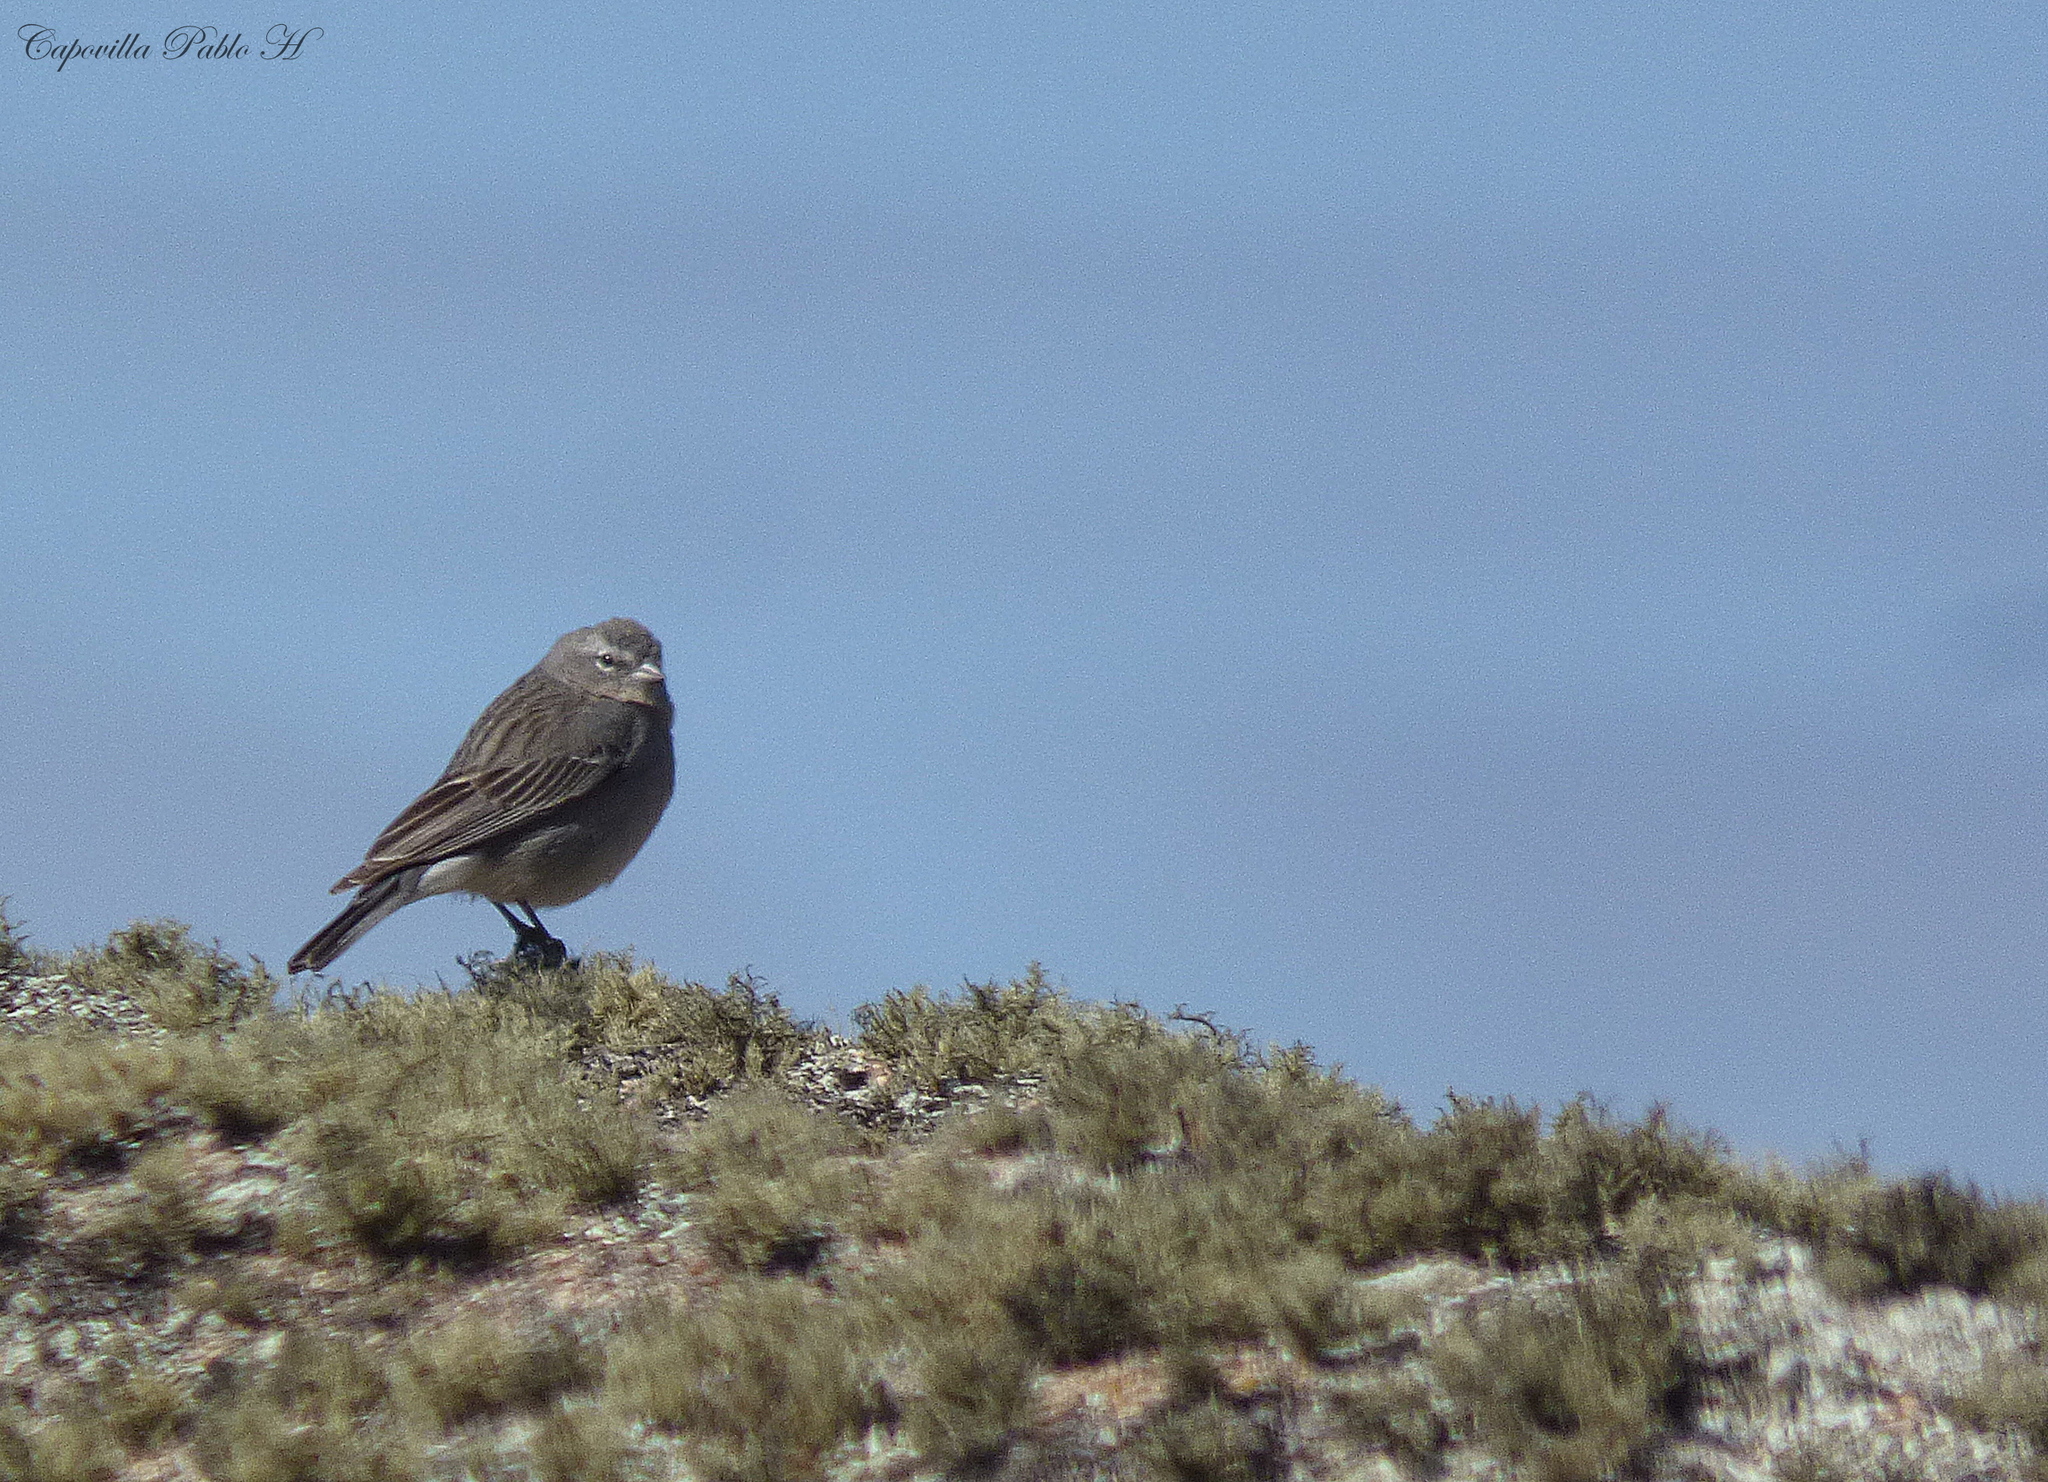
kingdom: Animalia
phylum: Chordata
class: Aves
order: Passeriformes
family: Thraupidae
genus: Geospizopsis
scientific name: Geospizopsis plebejus
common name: Ash-breasted sierra-finch
